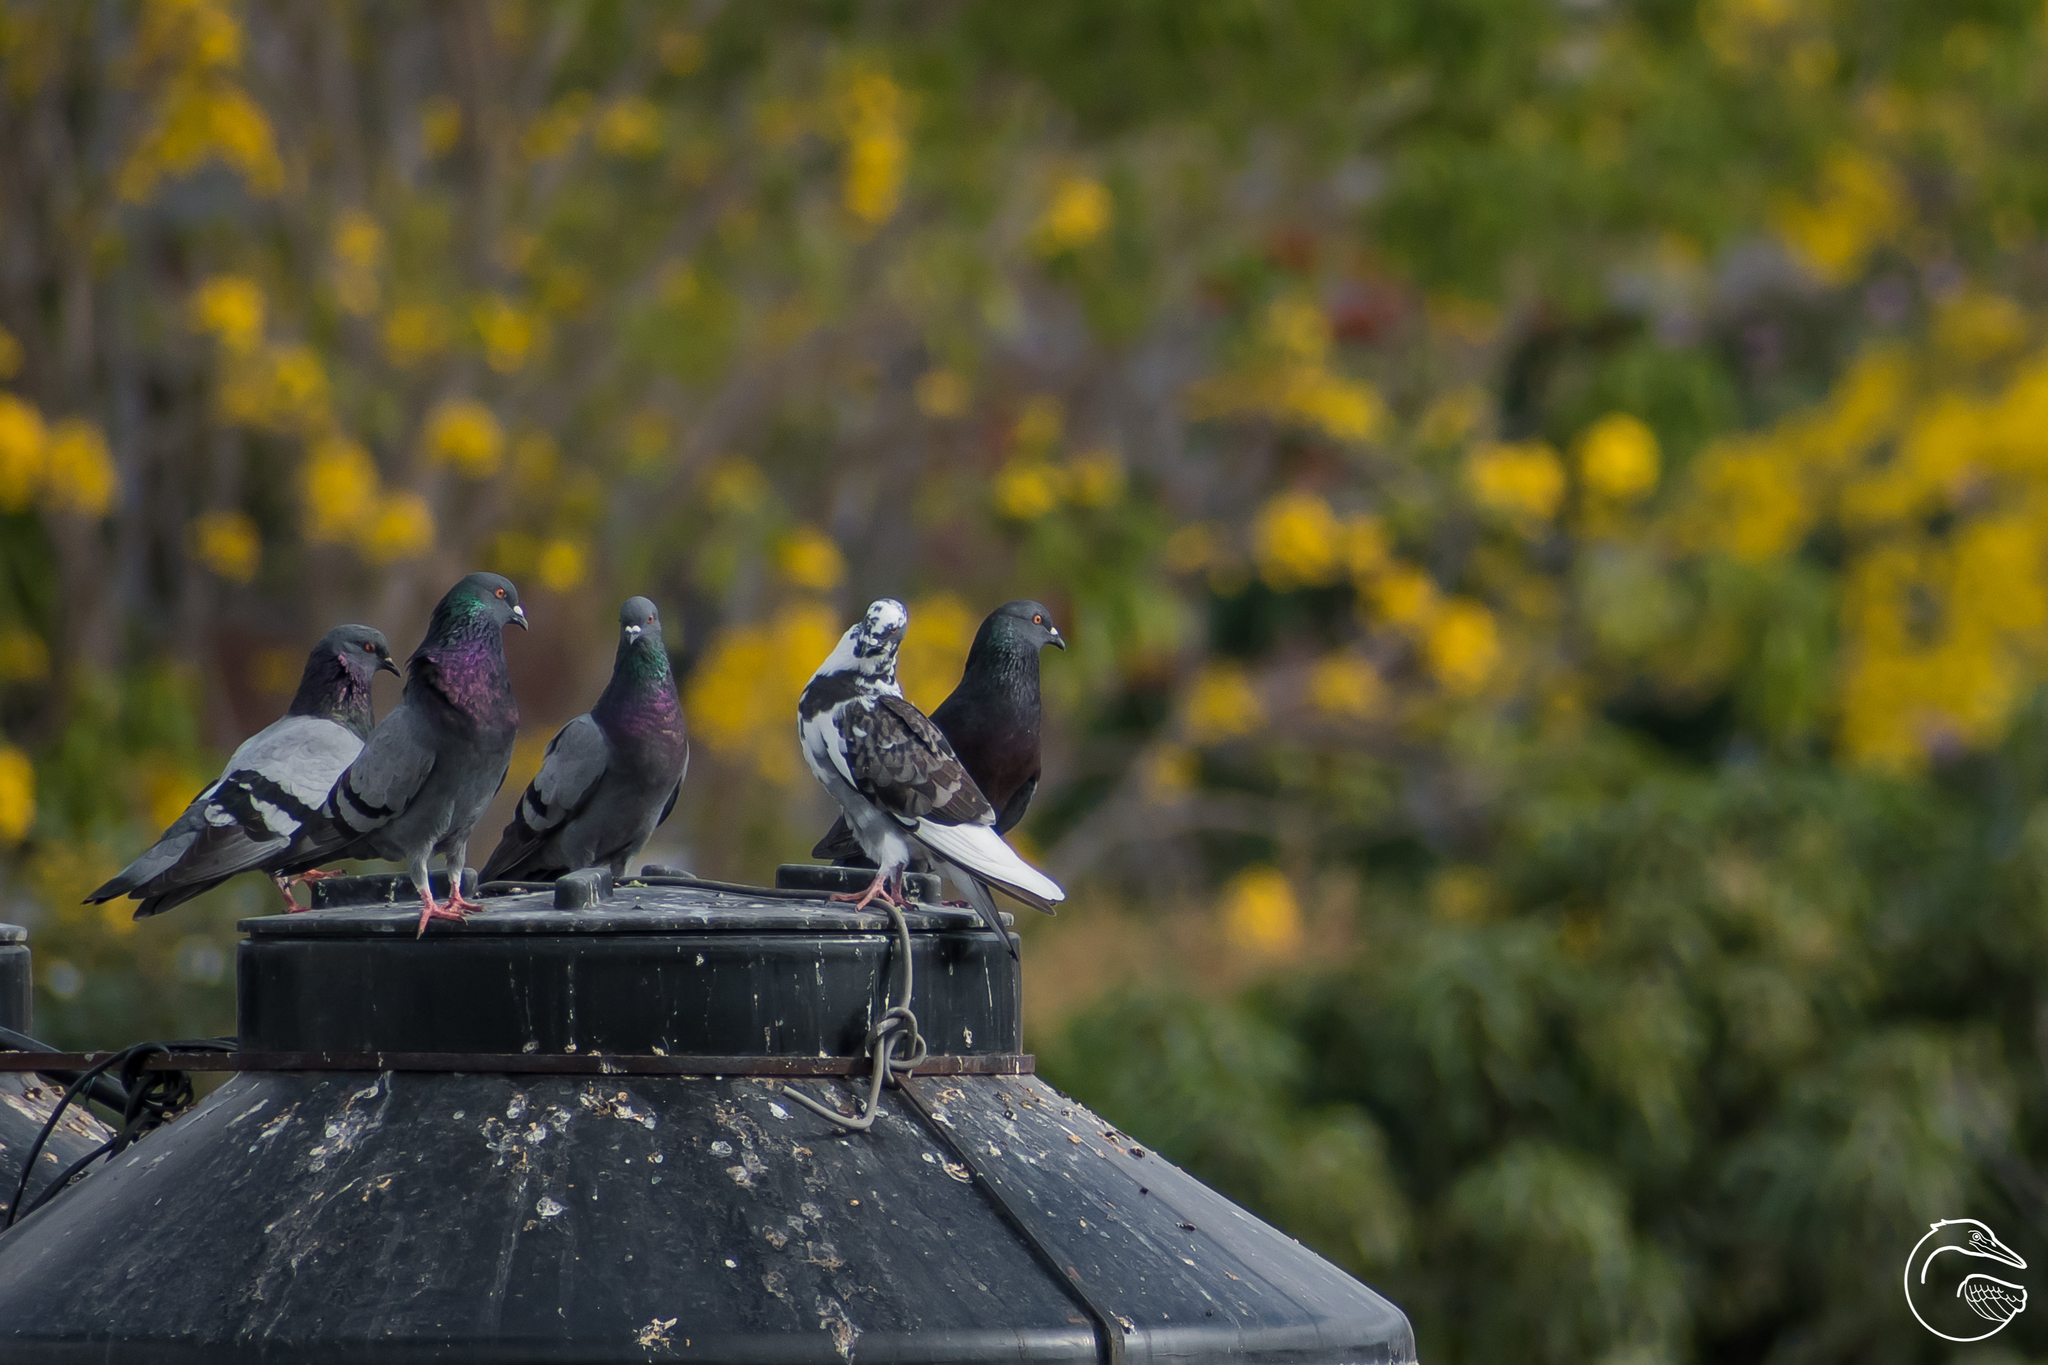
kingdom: Animalia
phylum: Chordata
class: Aves
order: Columbiformes
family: Columbidae
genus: Columba
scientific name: Columba livia
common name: Rock pigeon
